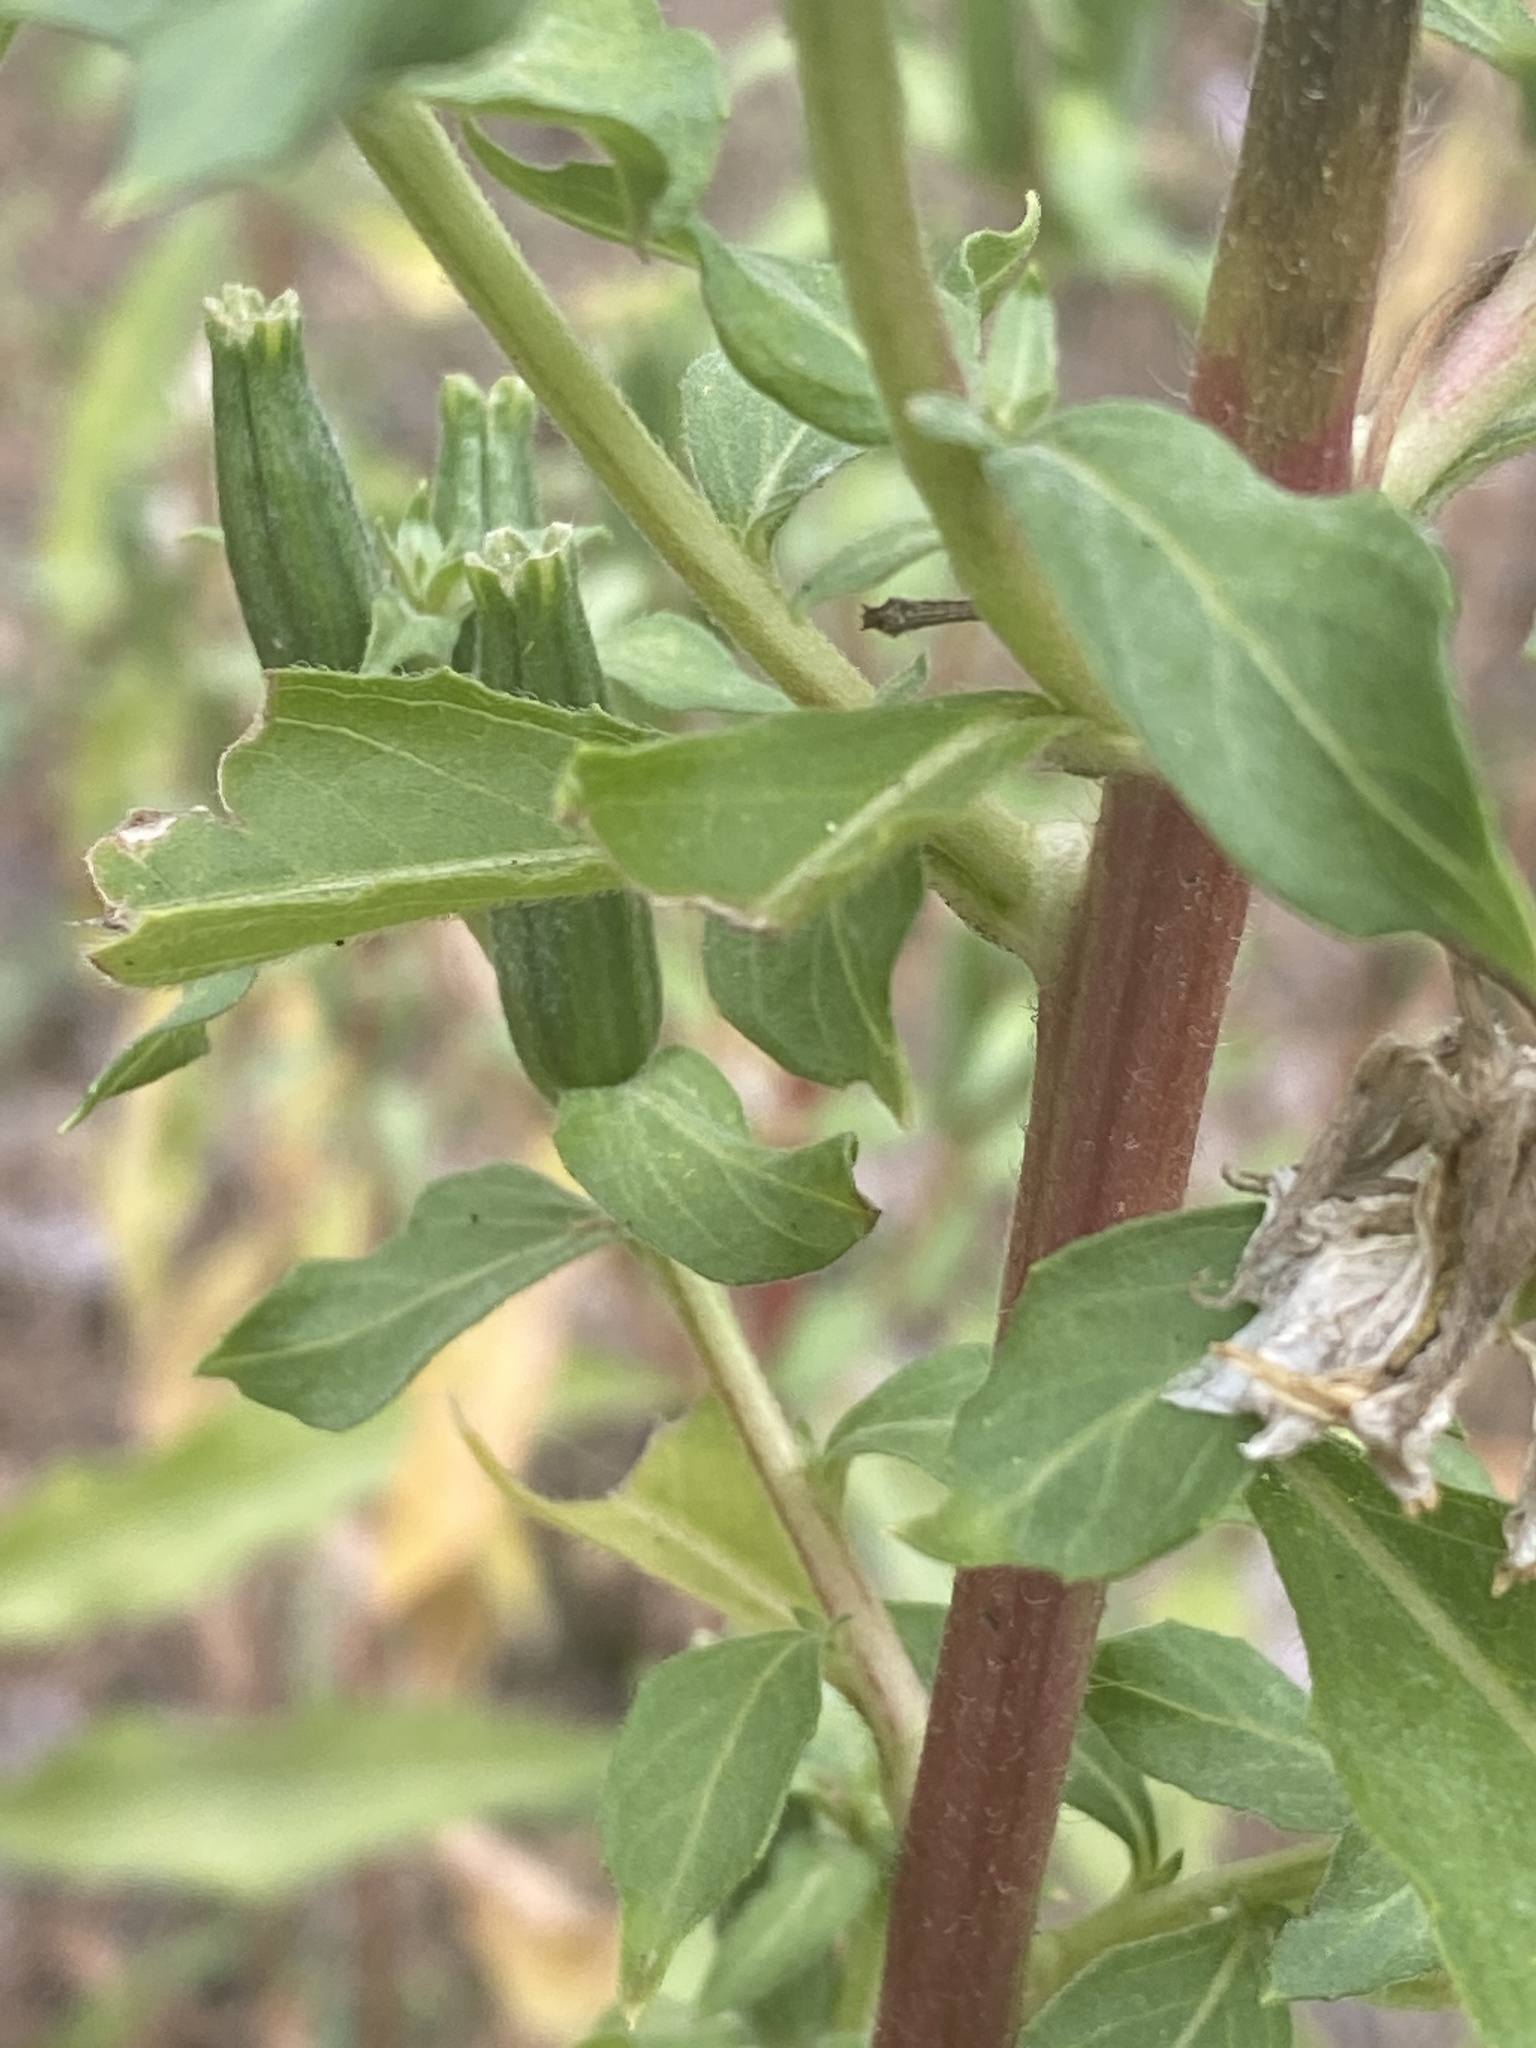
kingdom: Plantae
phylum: Tracheophyta
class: Magnoliopsida
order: Myrtales
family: Onagraceae
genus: Oenothera
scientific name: Oenothera biennis
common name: Common evening-primrose
